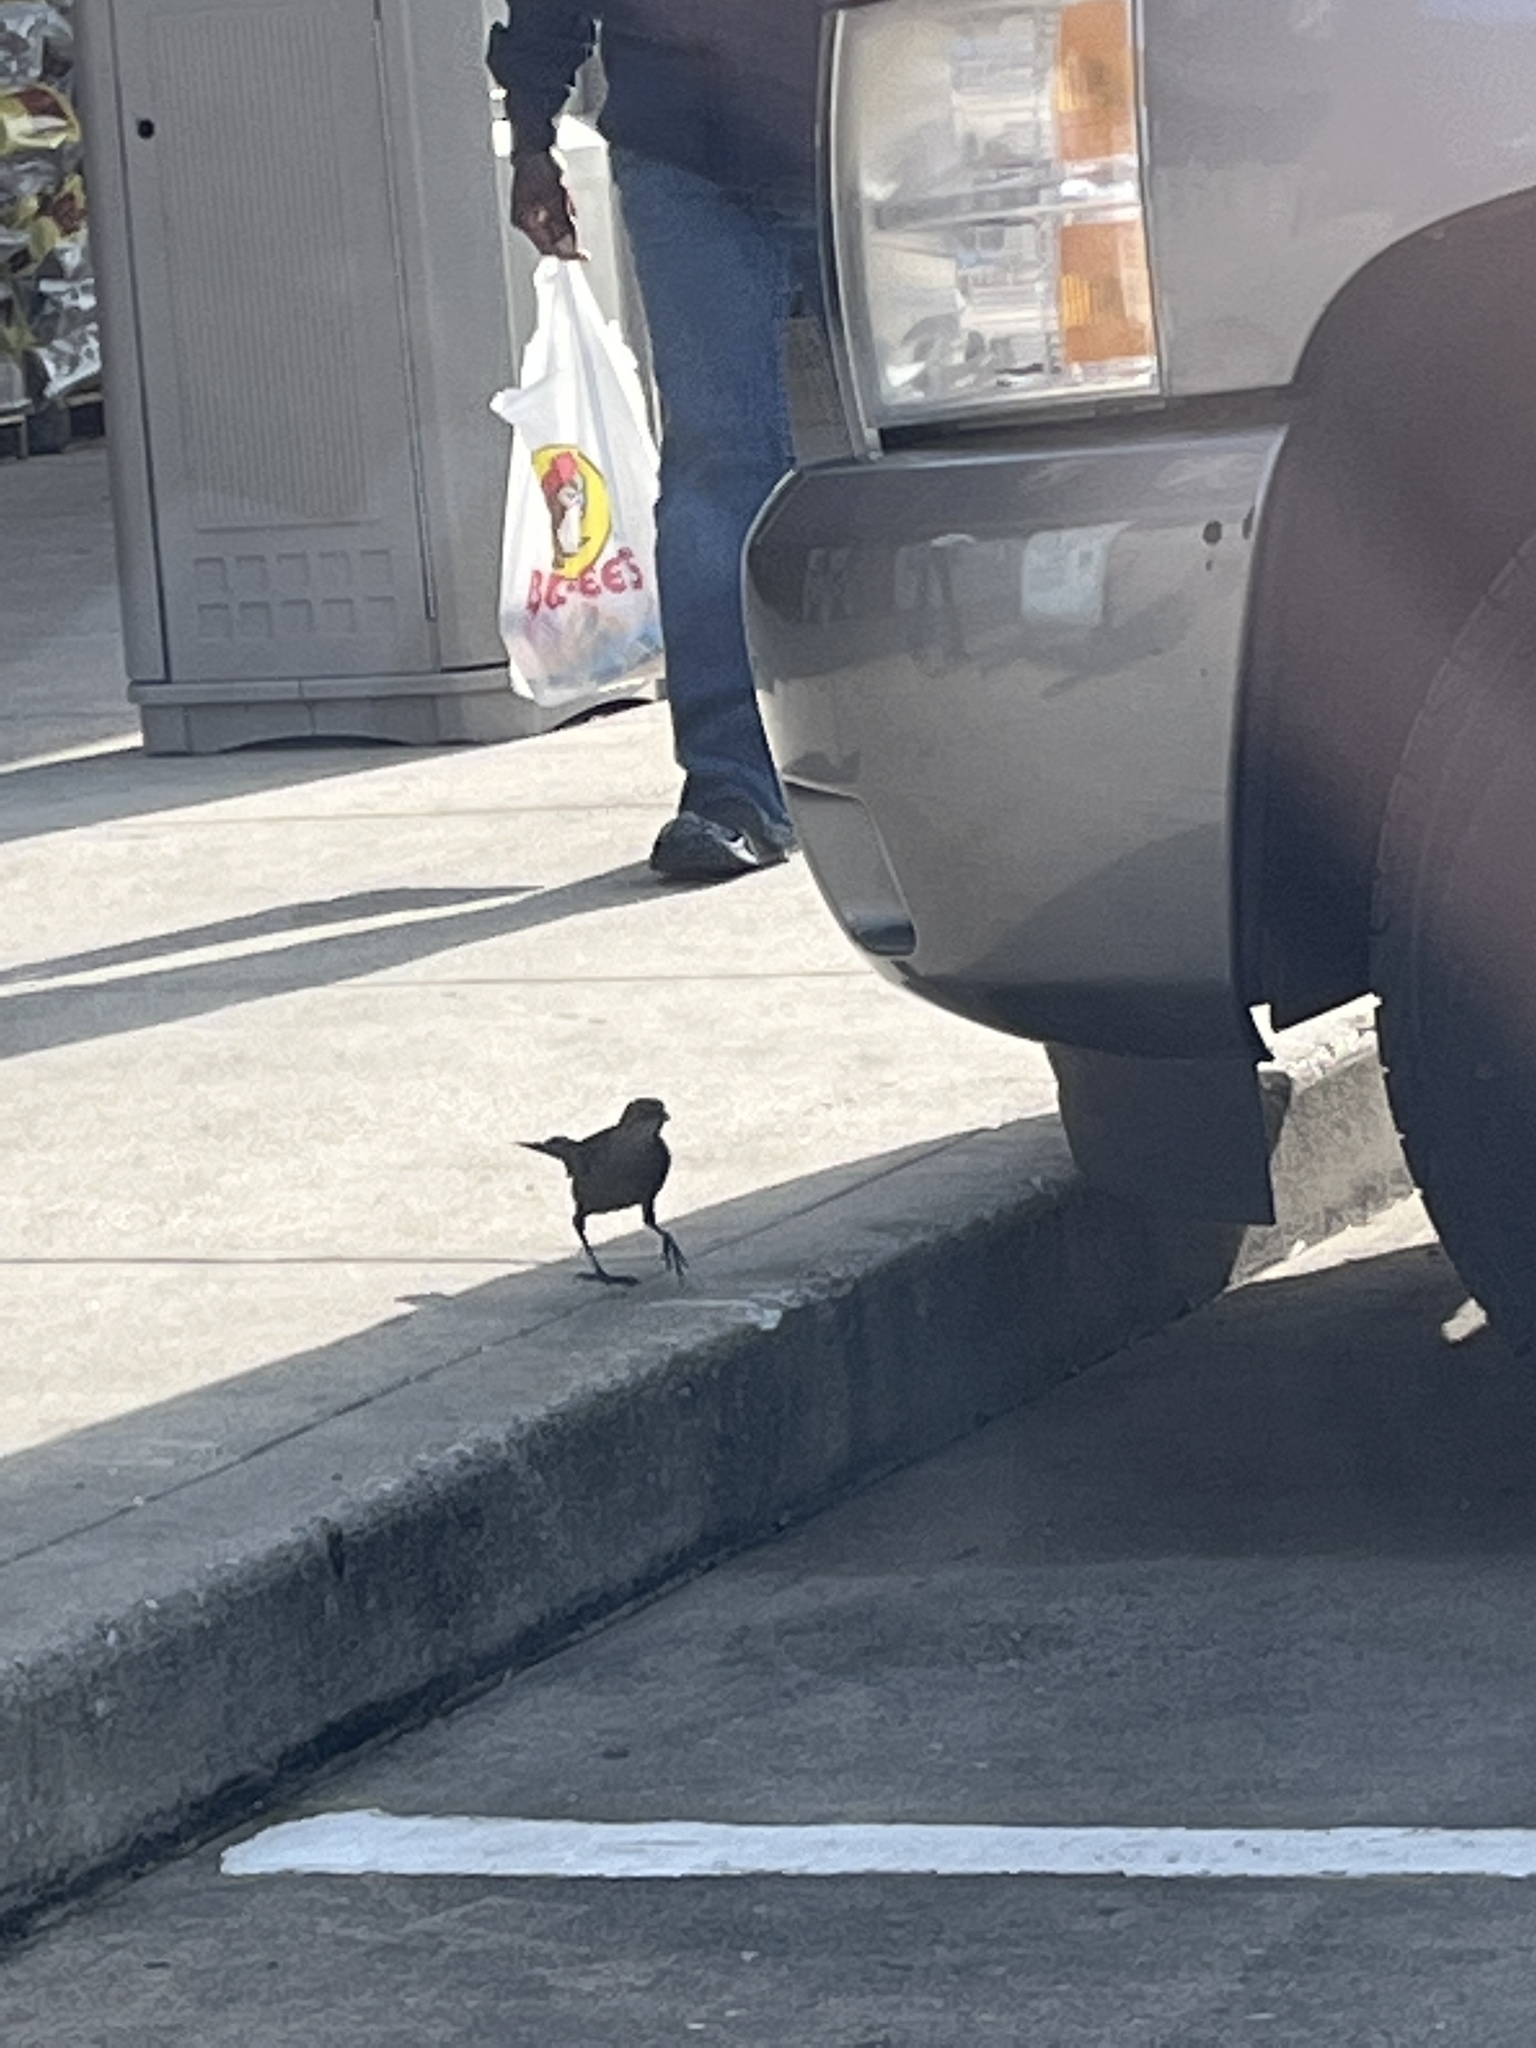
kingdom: Animalia
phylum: Chordata
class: Aves
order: Passeriformes
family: Icteridae
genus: Quiscalus
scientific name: Quiscalus mexicanus
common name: Great-tailed grackle
